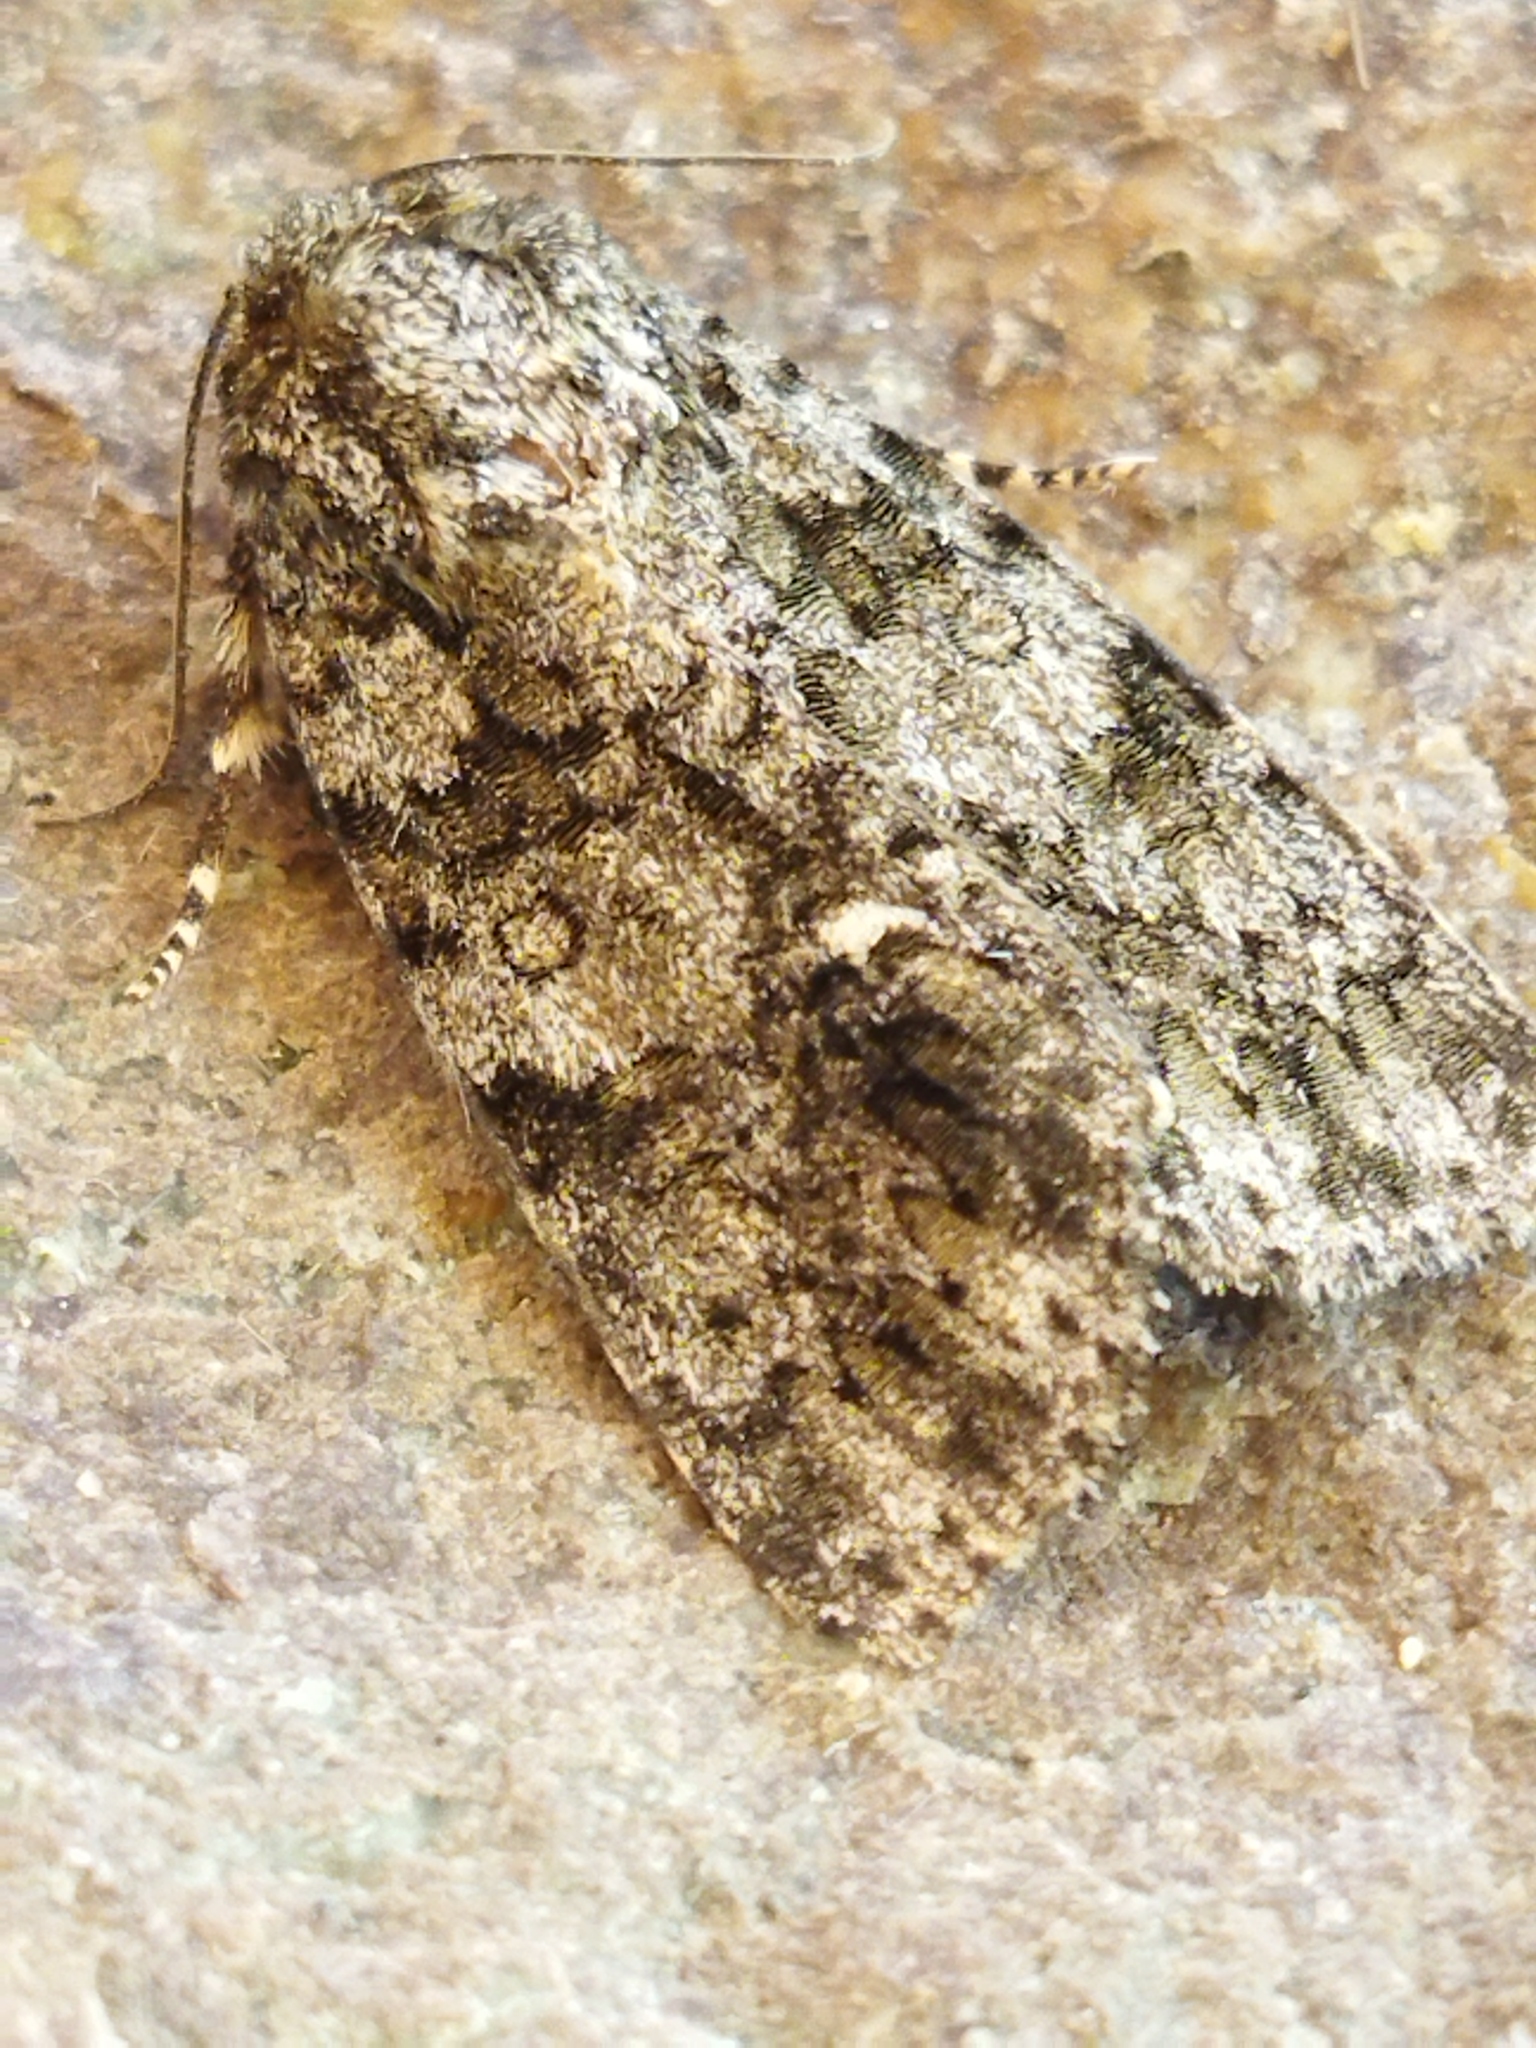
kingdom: Animalia
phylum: Arthropoda
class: Insecta
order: Lepidoptera
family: Noctuidae
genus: Acronicta
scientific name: Acronicta rumicis
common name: Knot grass
